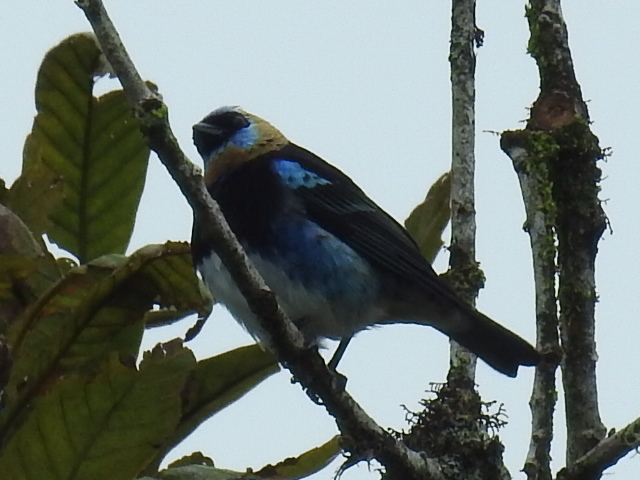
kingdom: Animalia
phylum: Chordata
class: Aves
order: Passeriformes
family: Thraupidae
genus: Stilpnia
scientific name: Stilpnia larvata
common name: Golden-hooded tanager
